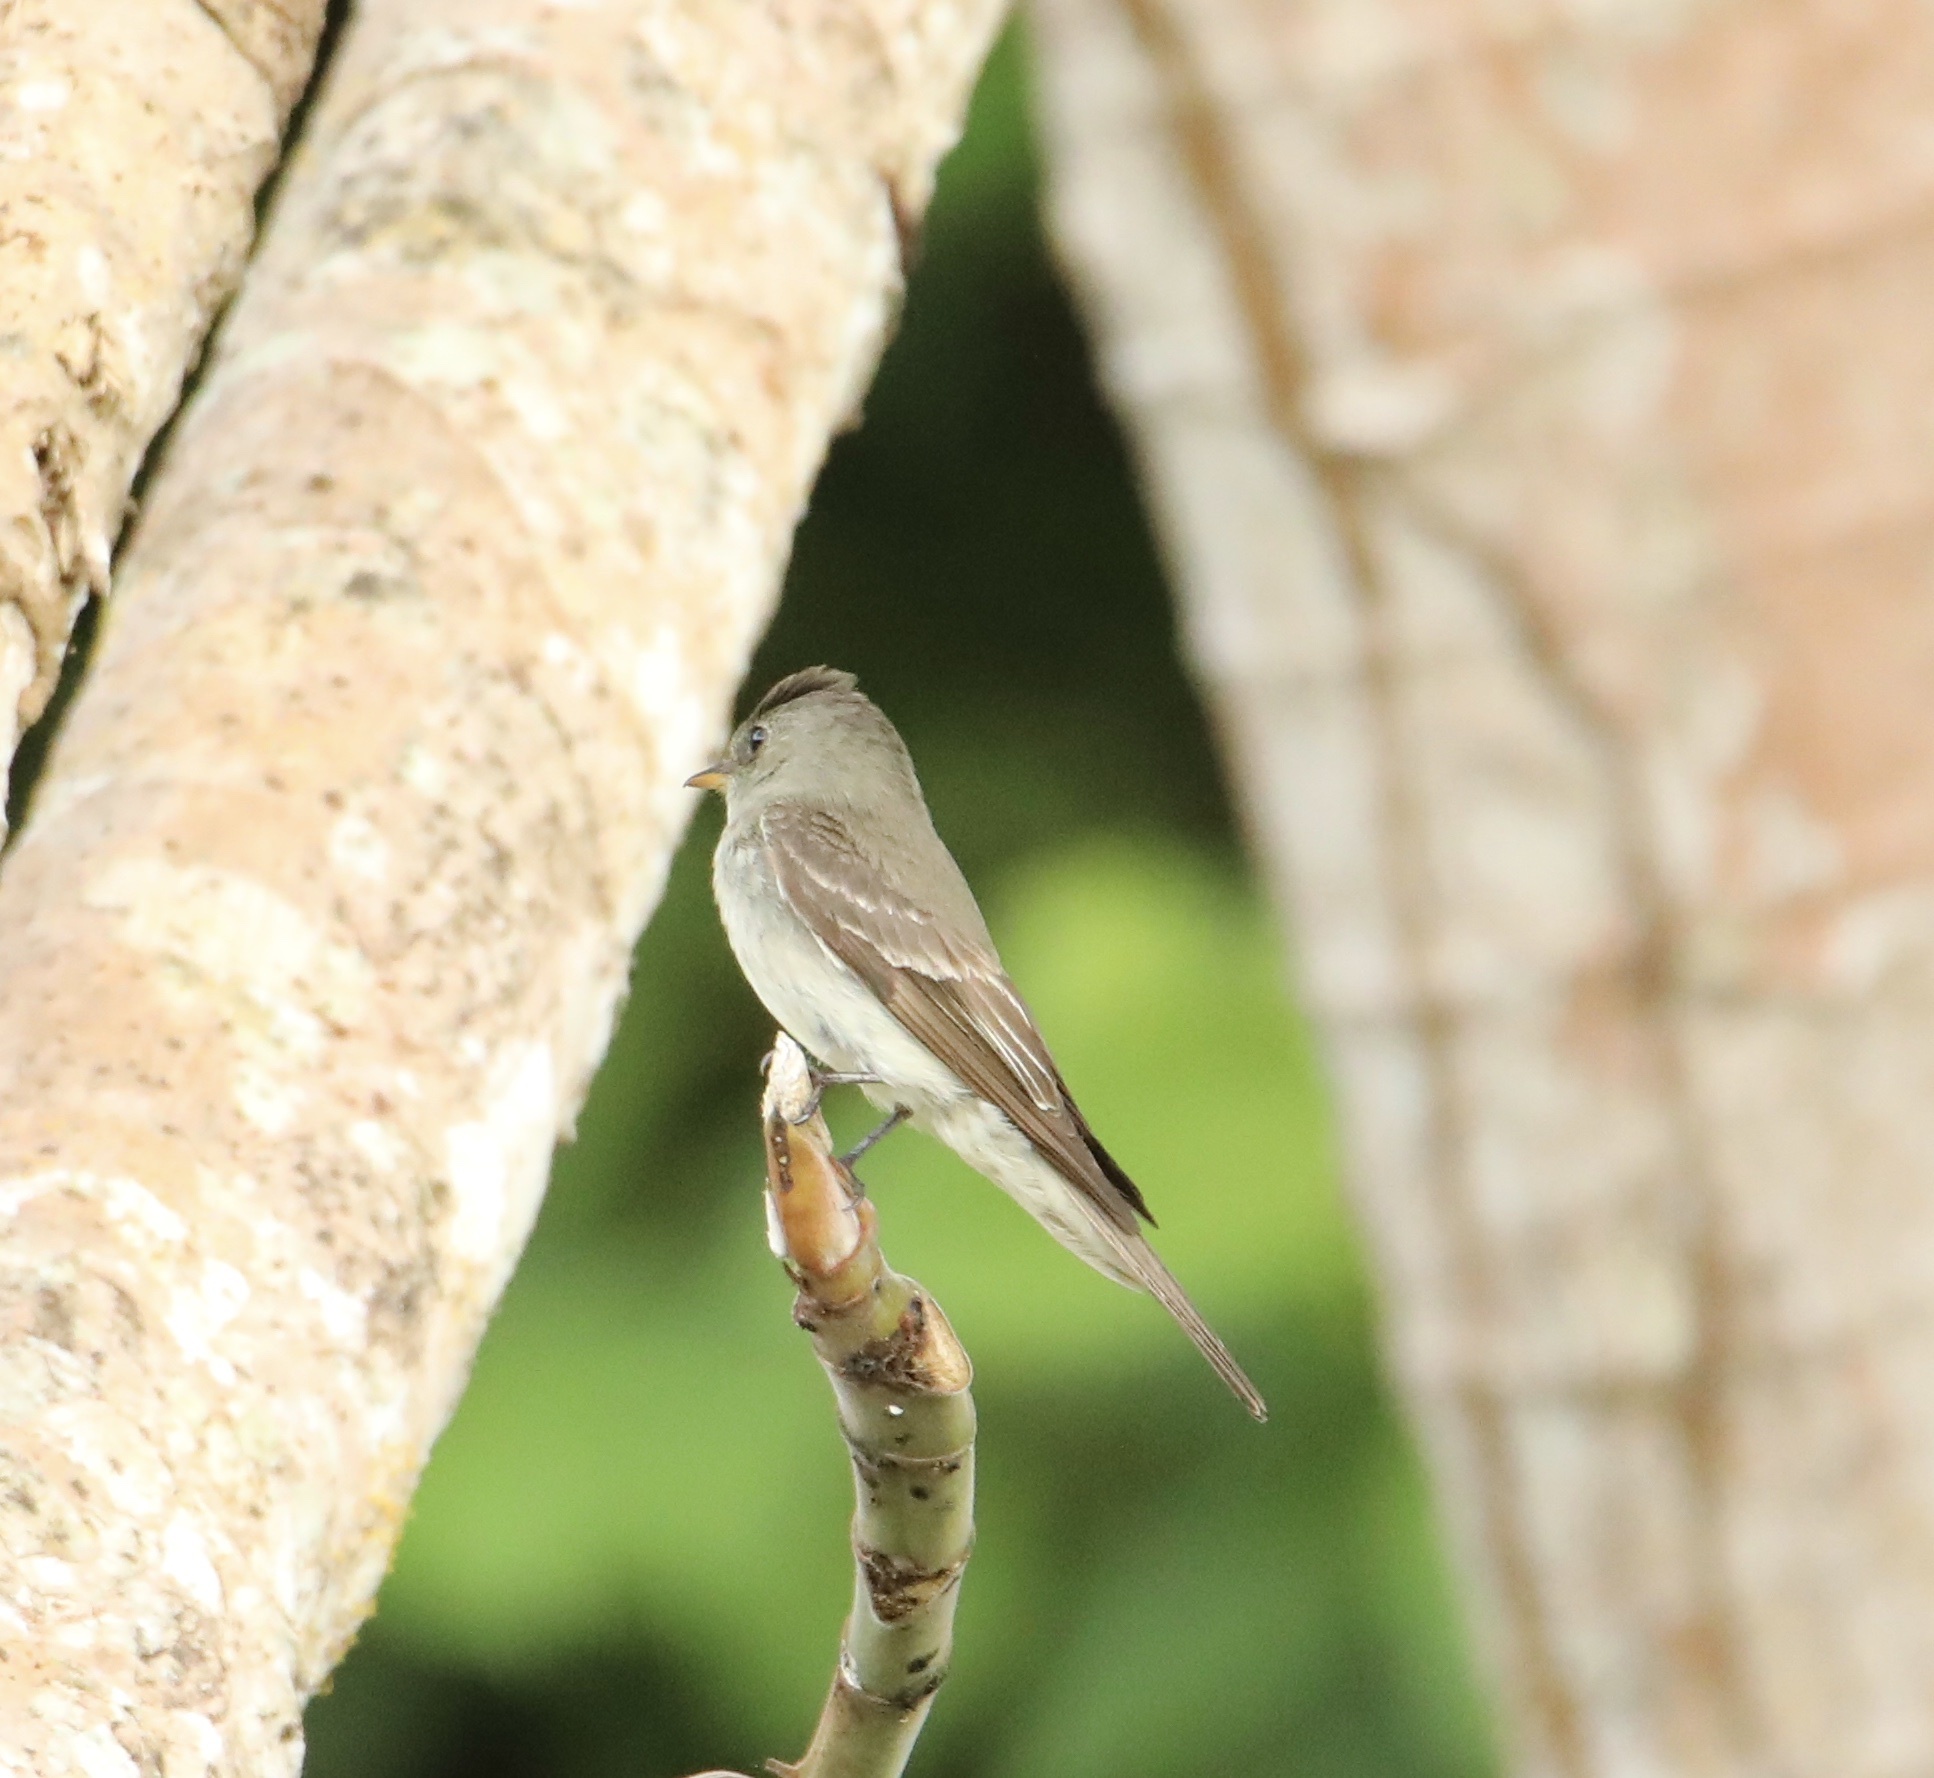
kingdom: Animalia
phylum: Chordata
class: Aves
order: Passeriformes
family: Tyrannidae
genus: Contopus
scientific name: Contopus virens
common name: Eastern wood-pewee
